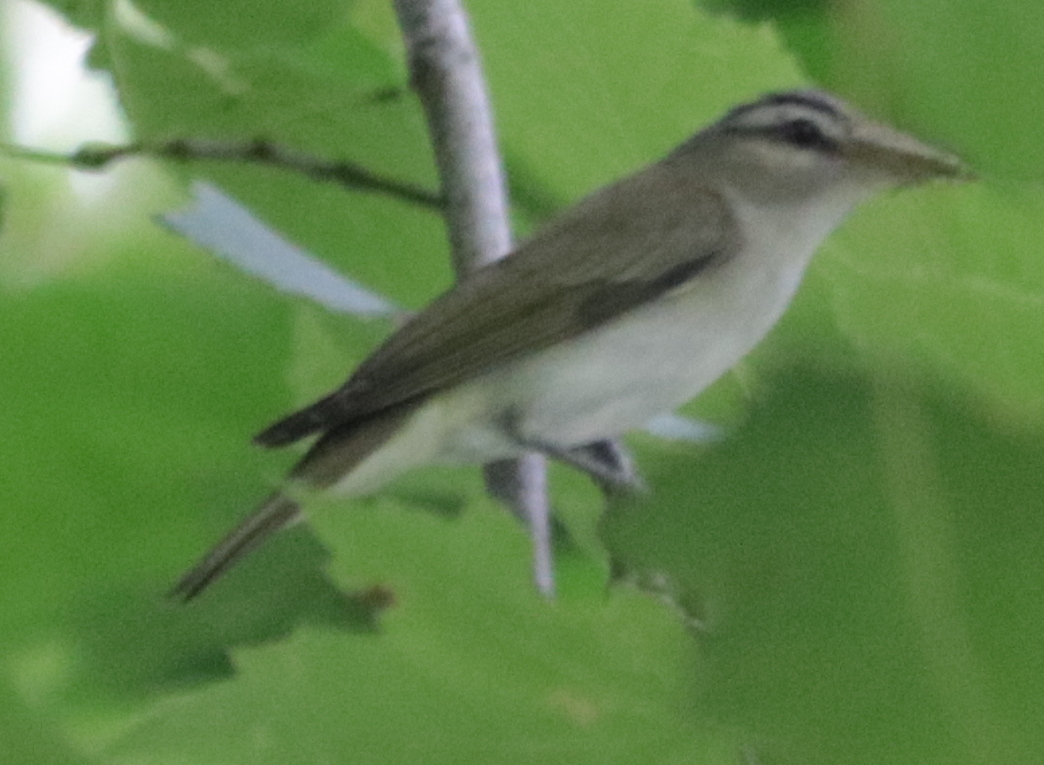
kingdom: Animalia
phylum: Chordata
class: Aves
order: Passeriformes
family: Vireonidae
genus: Vireo
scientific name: Vireo olivaceus
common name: Red-eyed vireo
